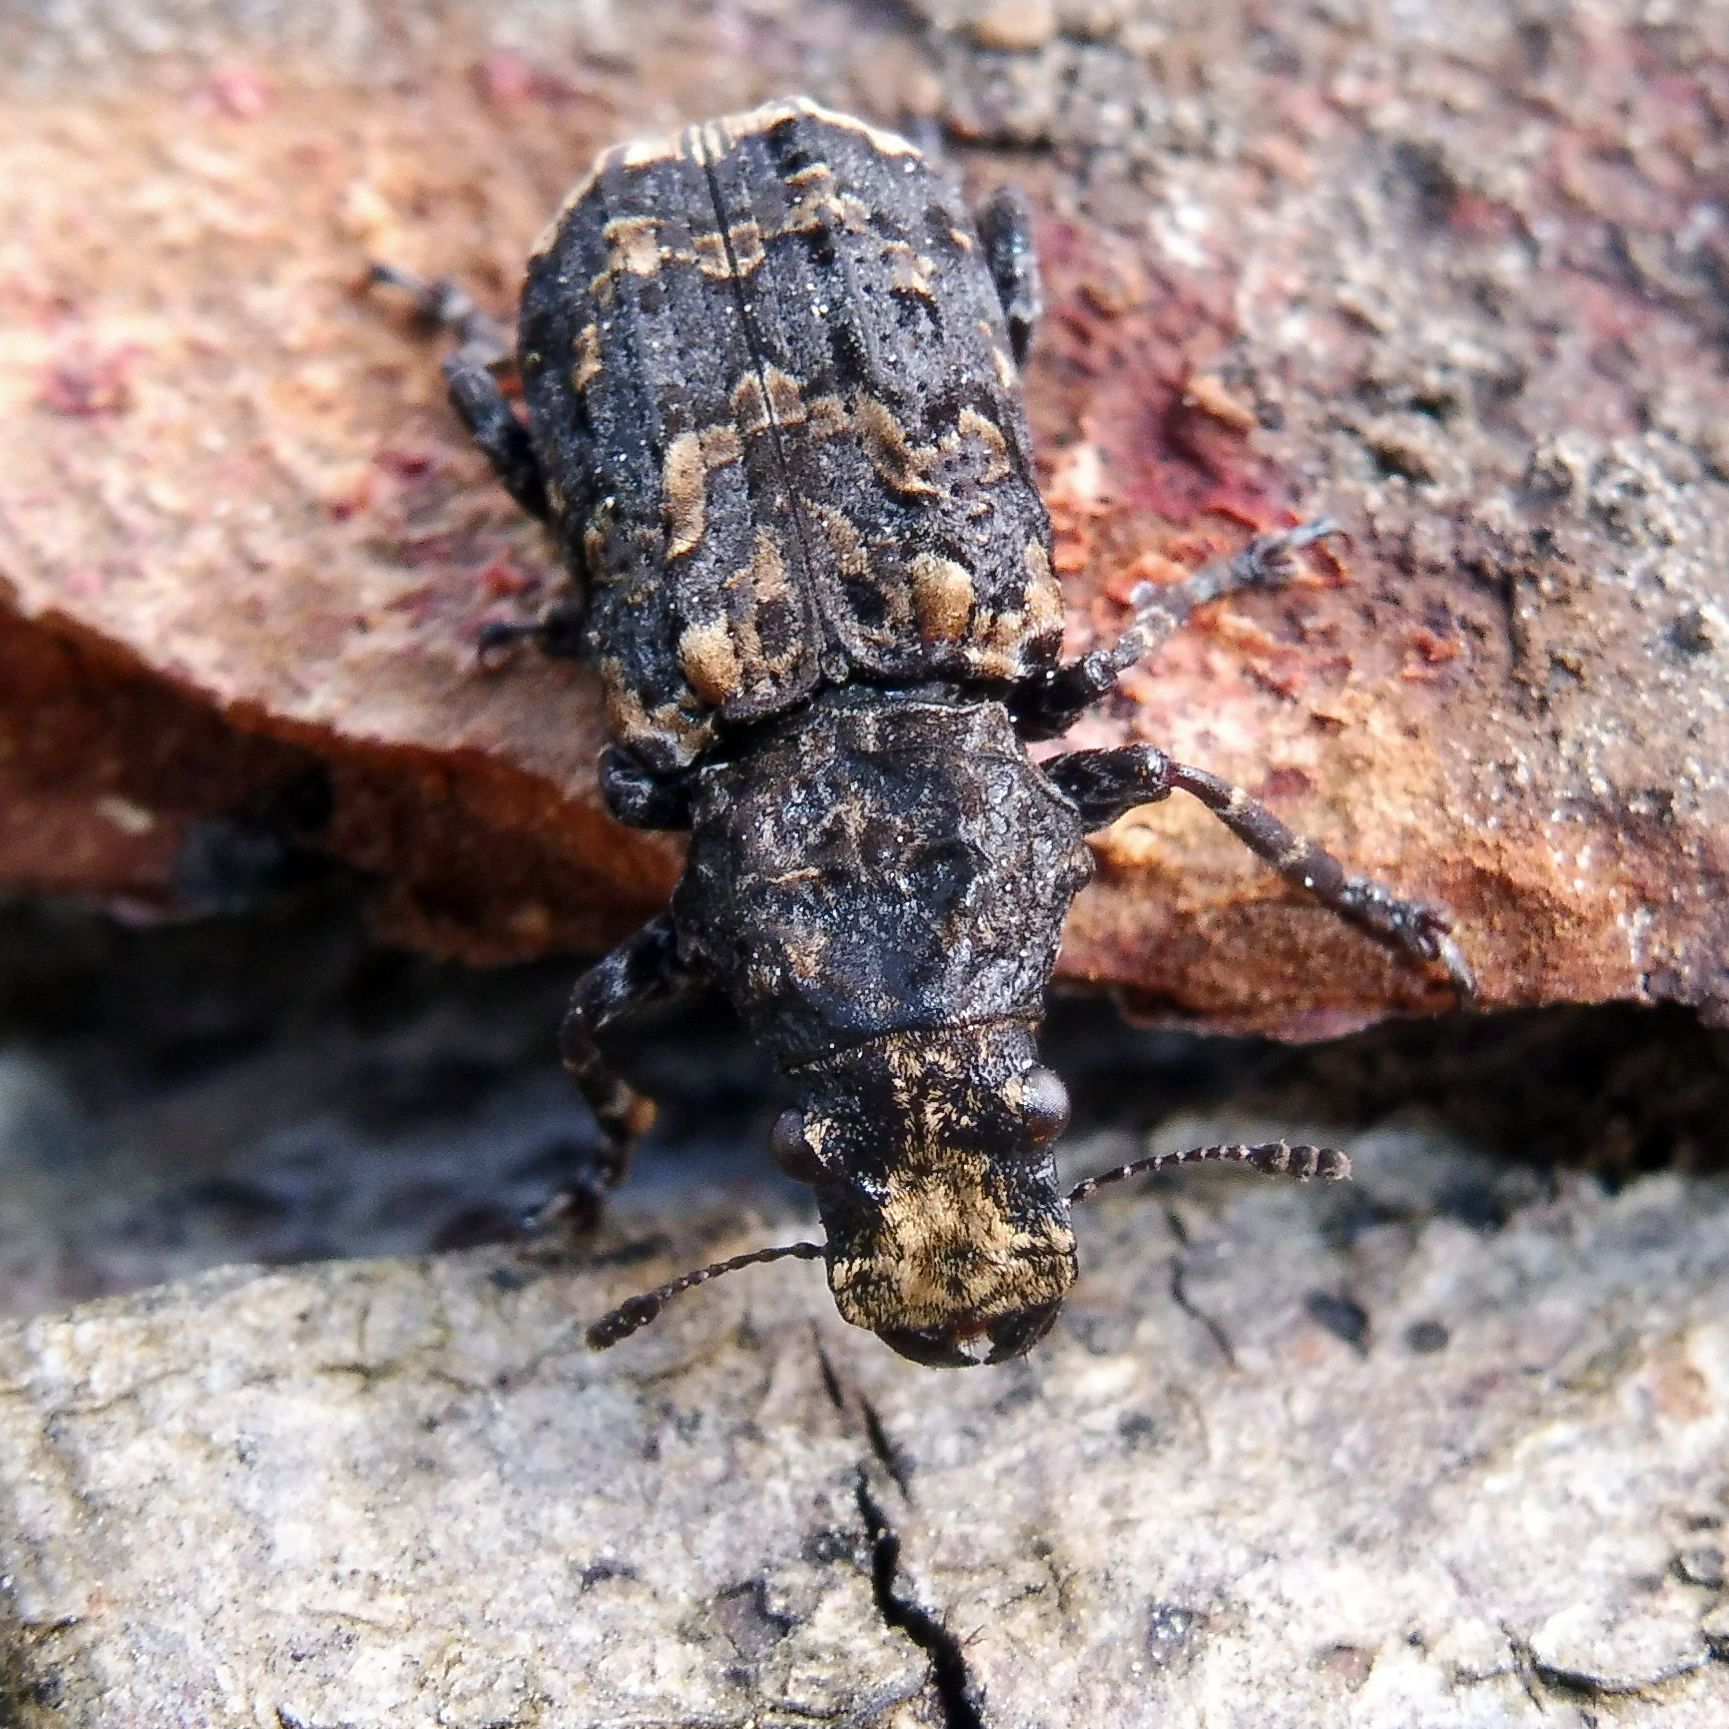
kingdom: Animalia
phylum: Arthropoda
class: Insecta
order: Coleoptera
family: Anthribidae
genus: Platyrhinus
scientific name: Platyrhinus resinosus
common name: Cramp-ball fungus weevil
